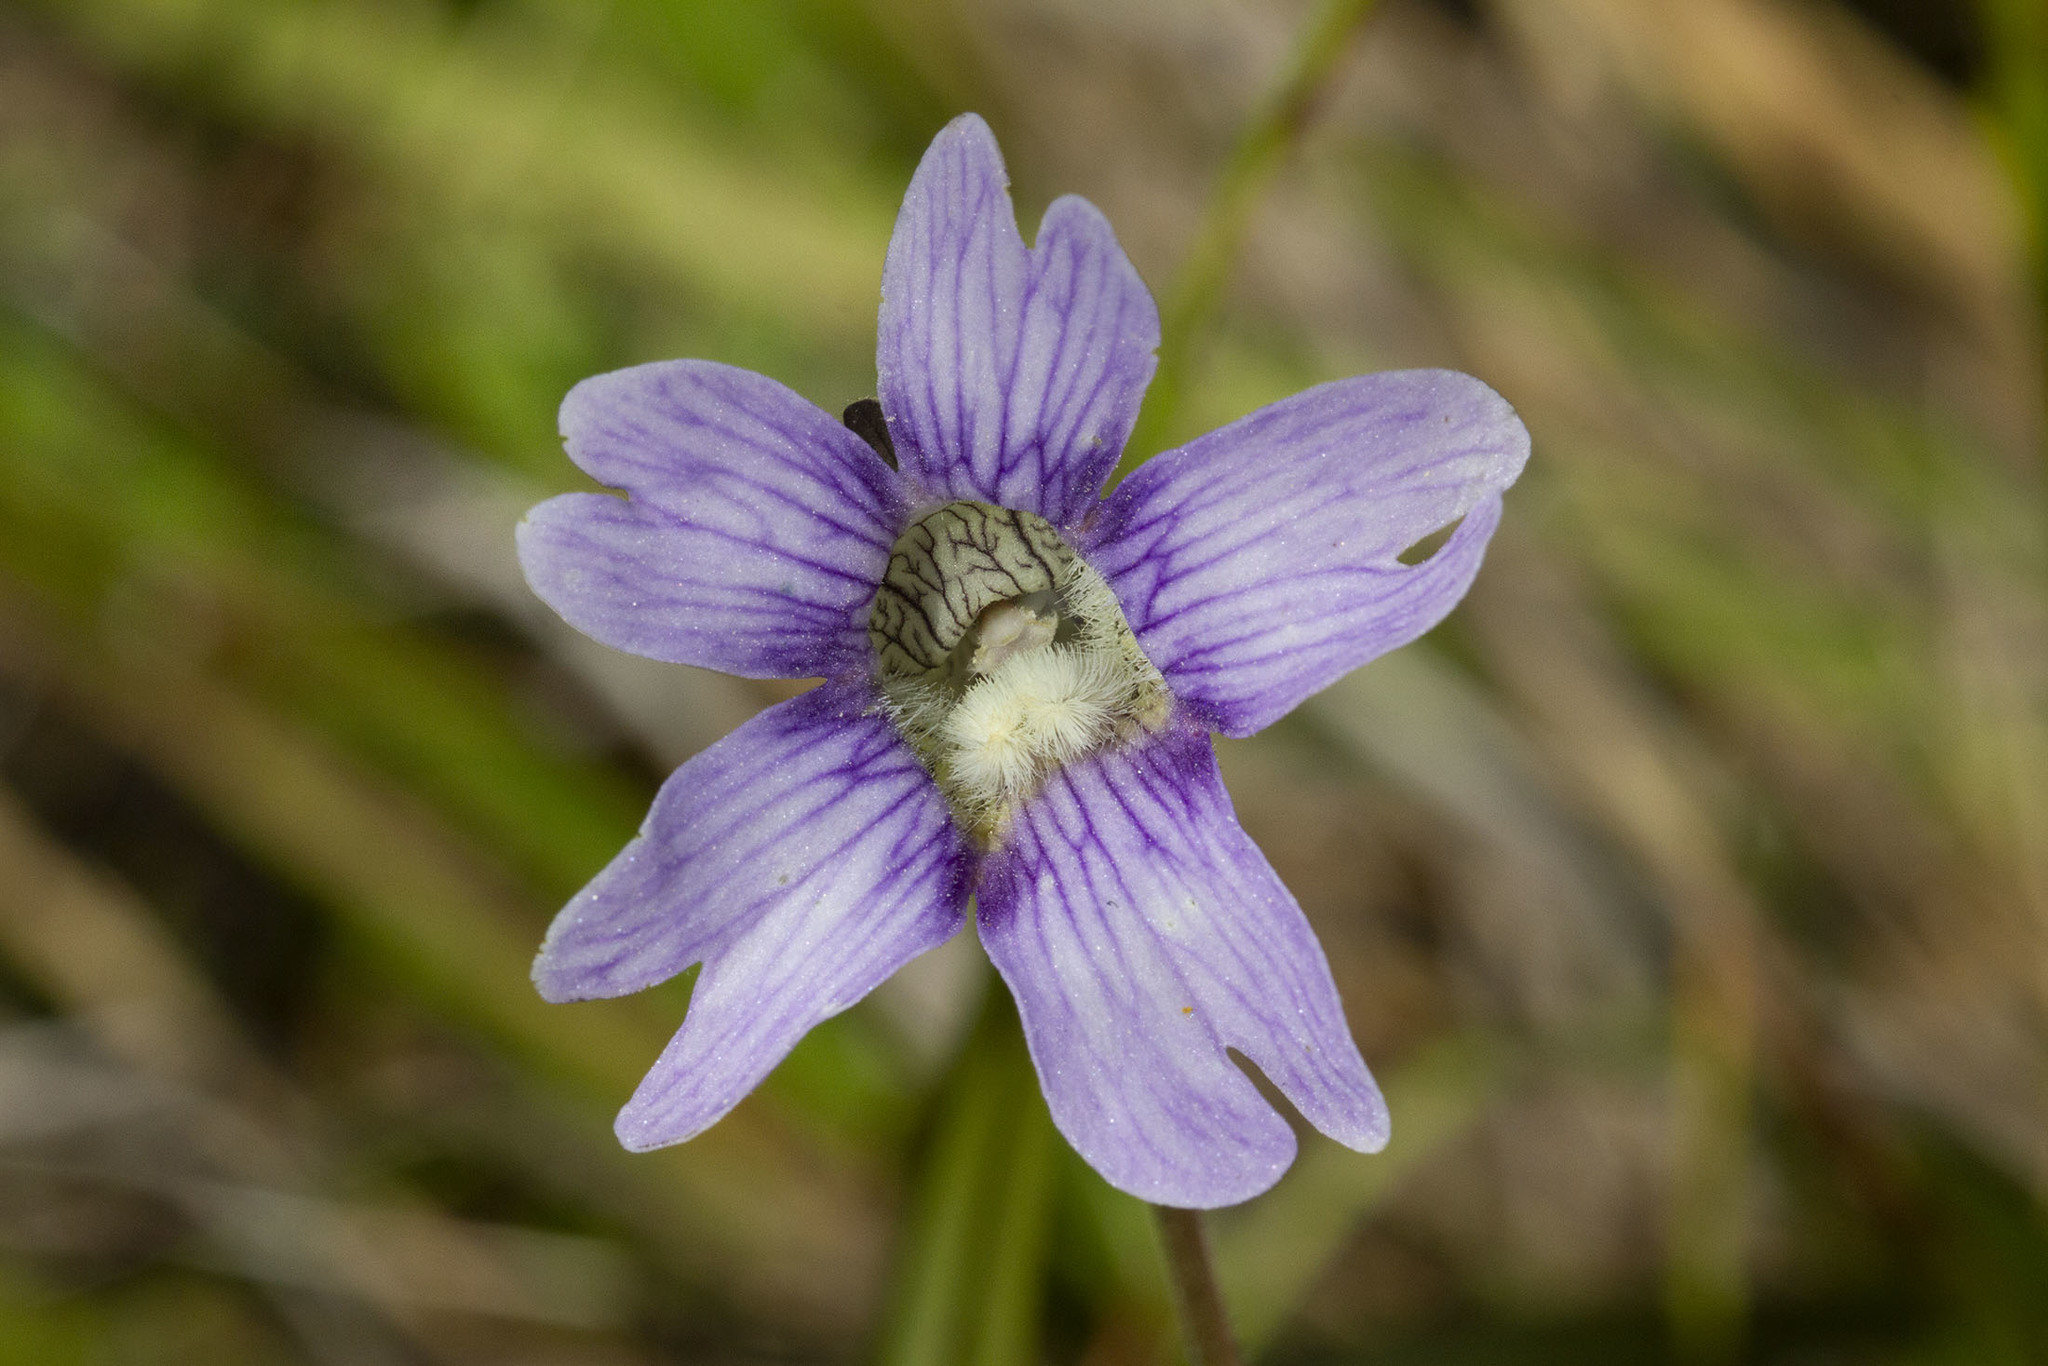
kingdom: Plantae
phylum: Tracheophyta
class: Magnoliopsida
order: Lamiales
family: Lentibulariaceae
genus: Pinguicula
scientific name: Pinguicula caerulea
